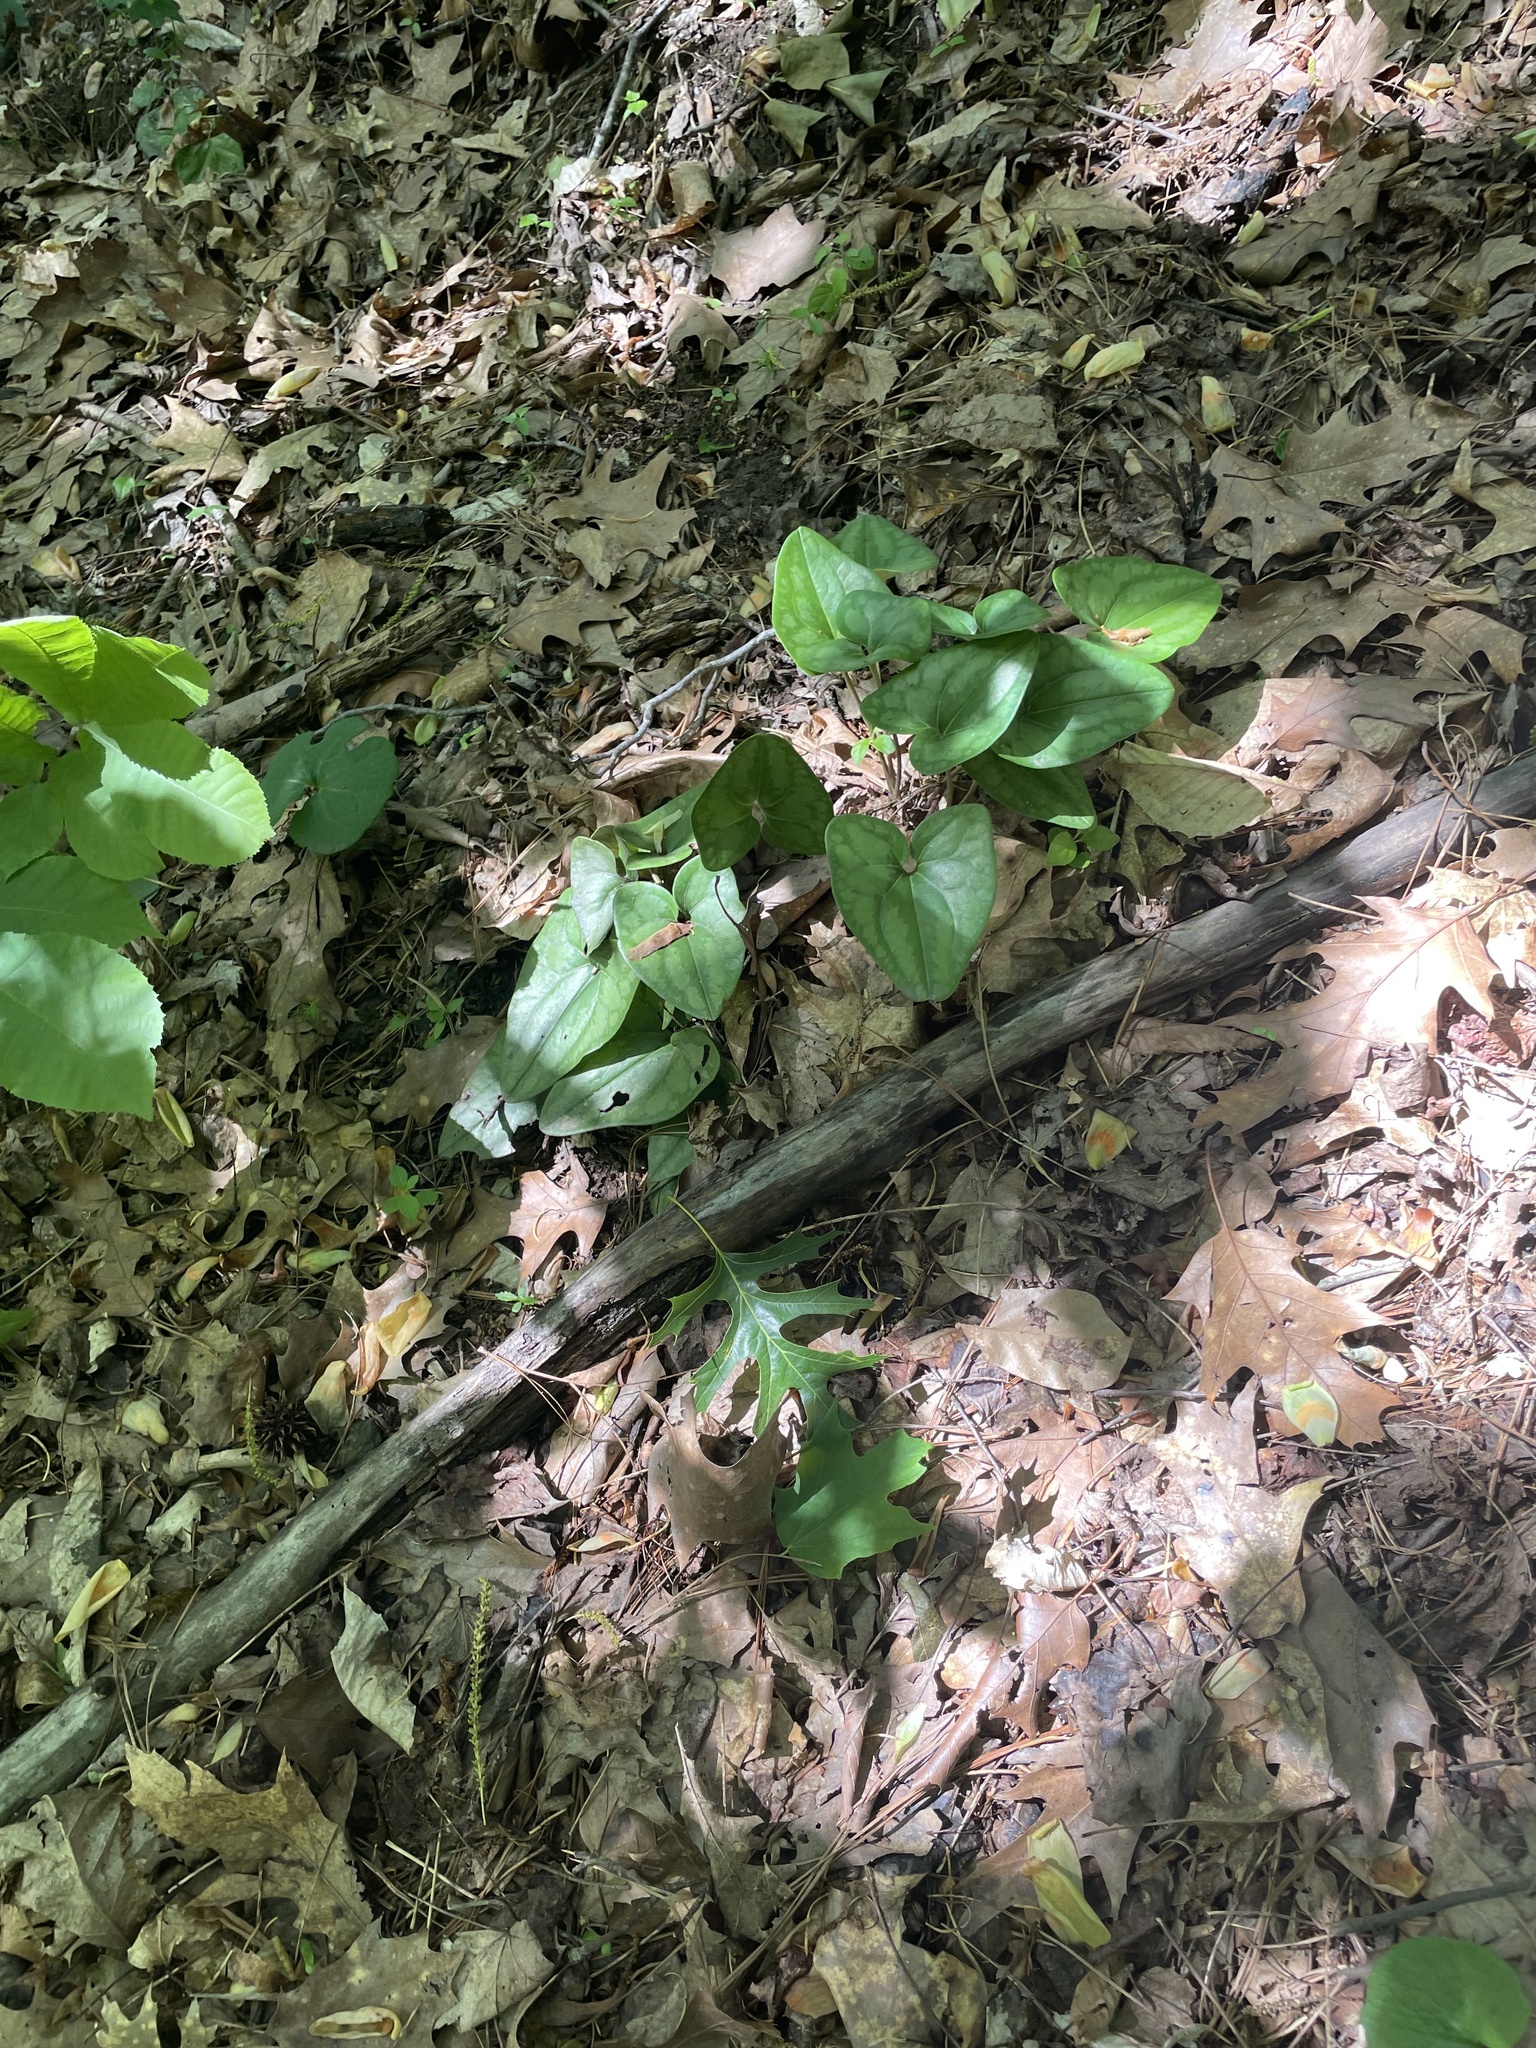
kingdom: Plantae
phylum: Tracheophyta
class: Magnoliopsida
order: Piperales
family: Aristolochiaceae
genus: Hexastylis
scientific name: Hexastylis arifolia
